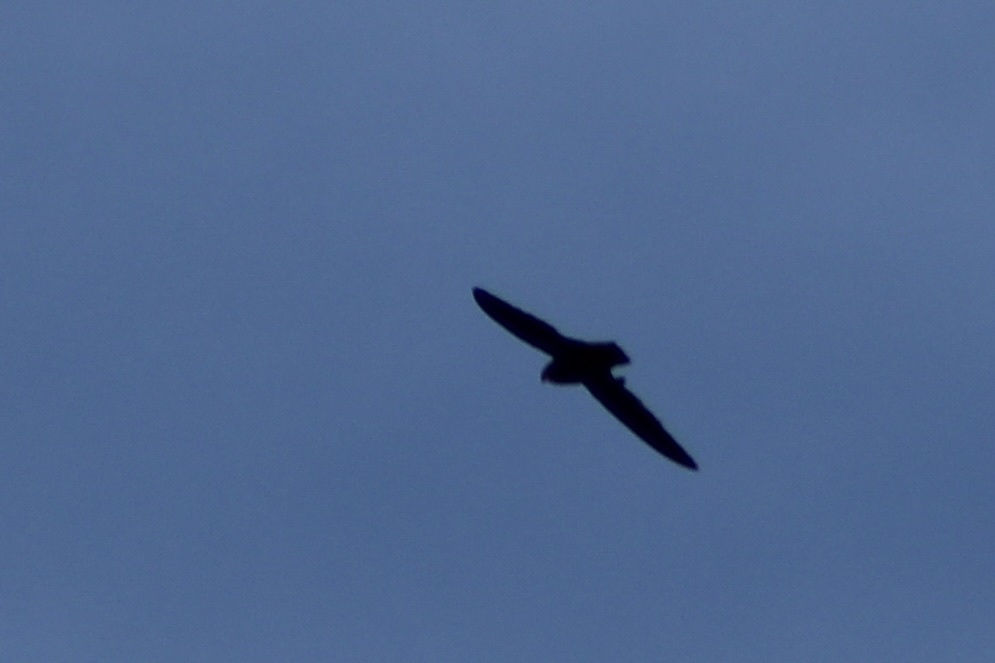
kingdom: Animalia
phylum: Chordata
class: Aves
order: Apodiformes
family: Apodidae
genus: Chaetura
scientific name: Chaetura pelagica
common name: Chimney swift
